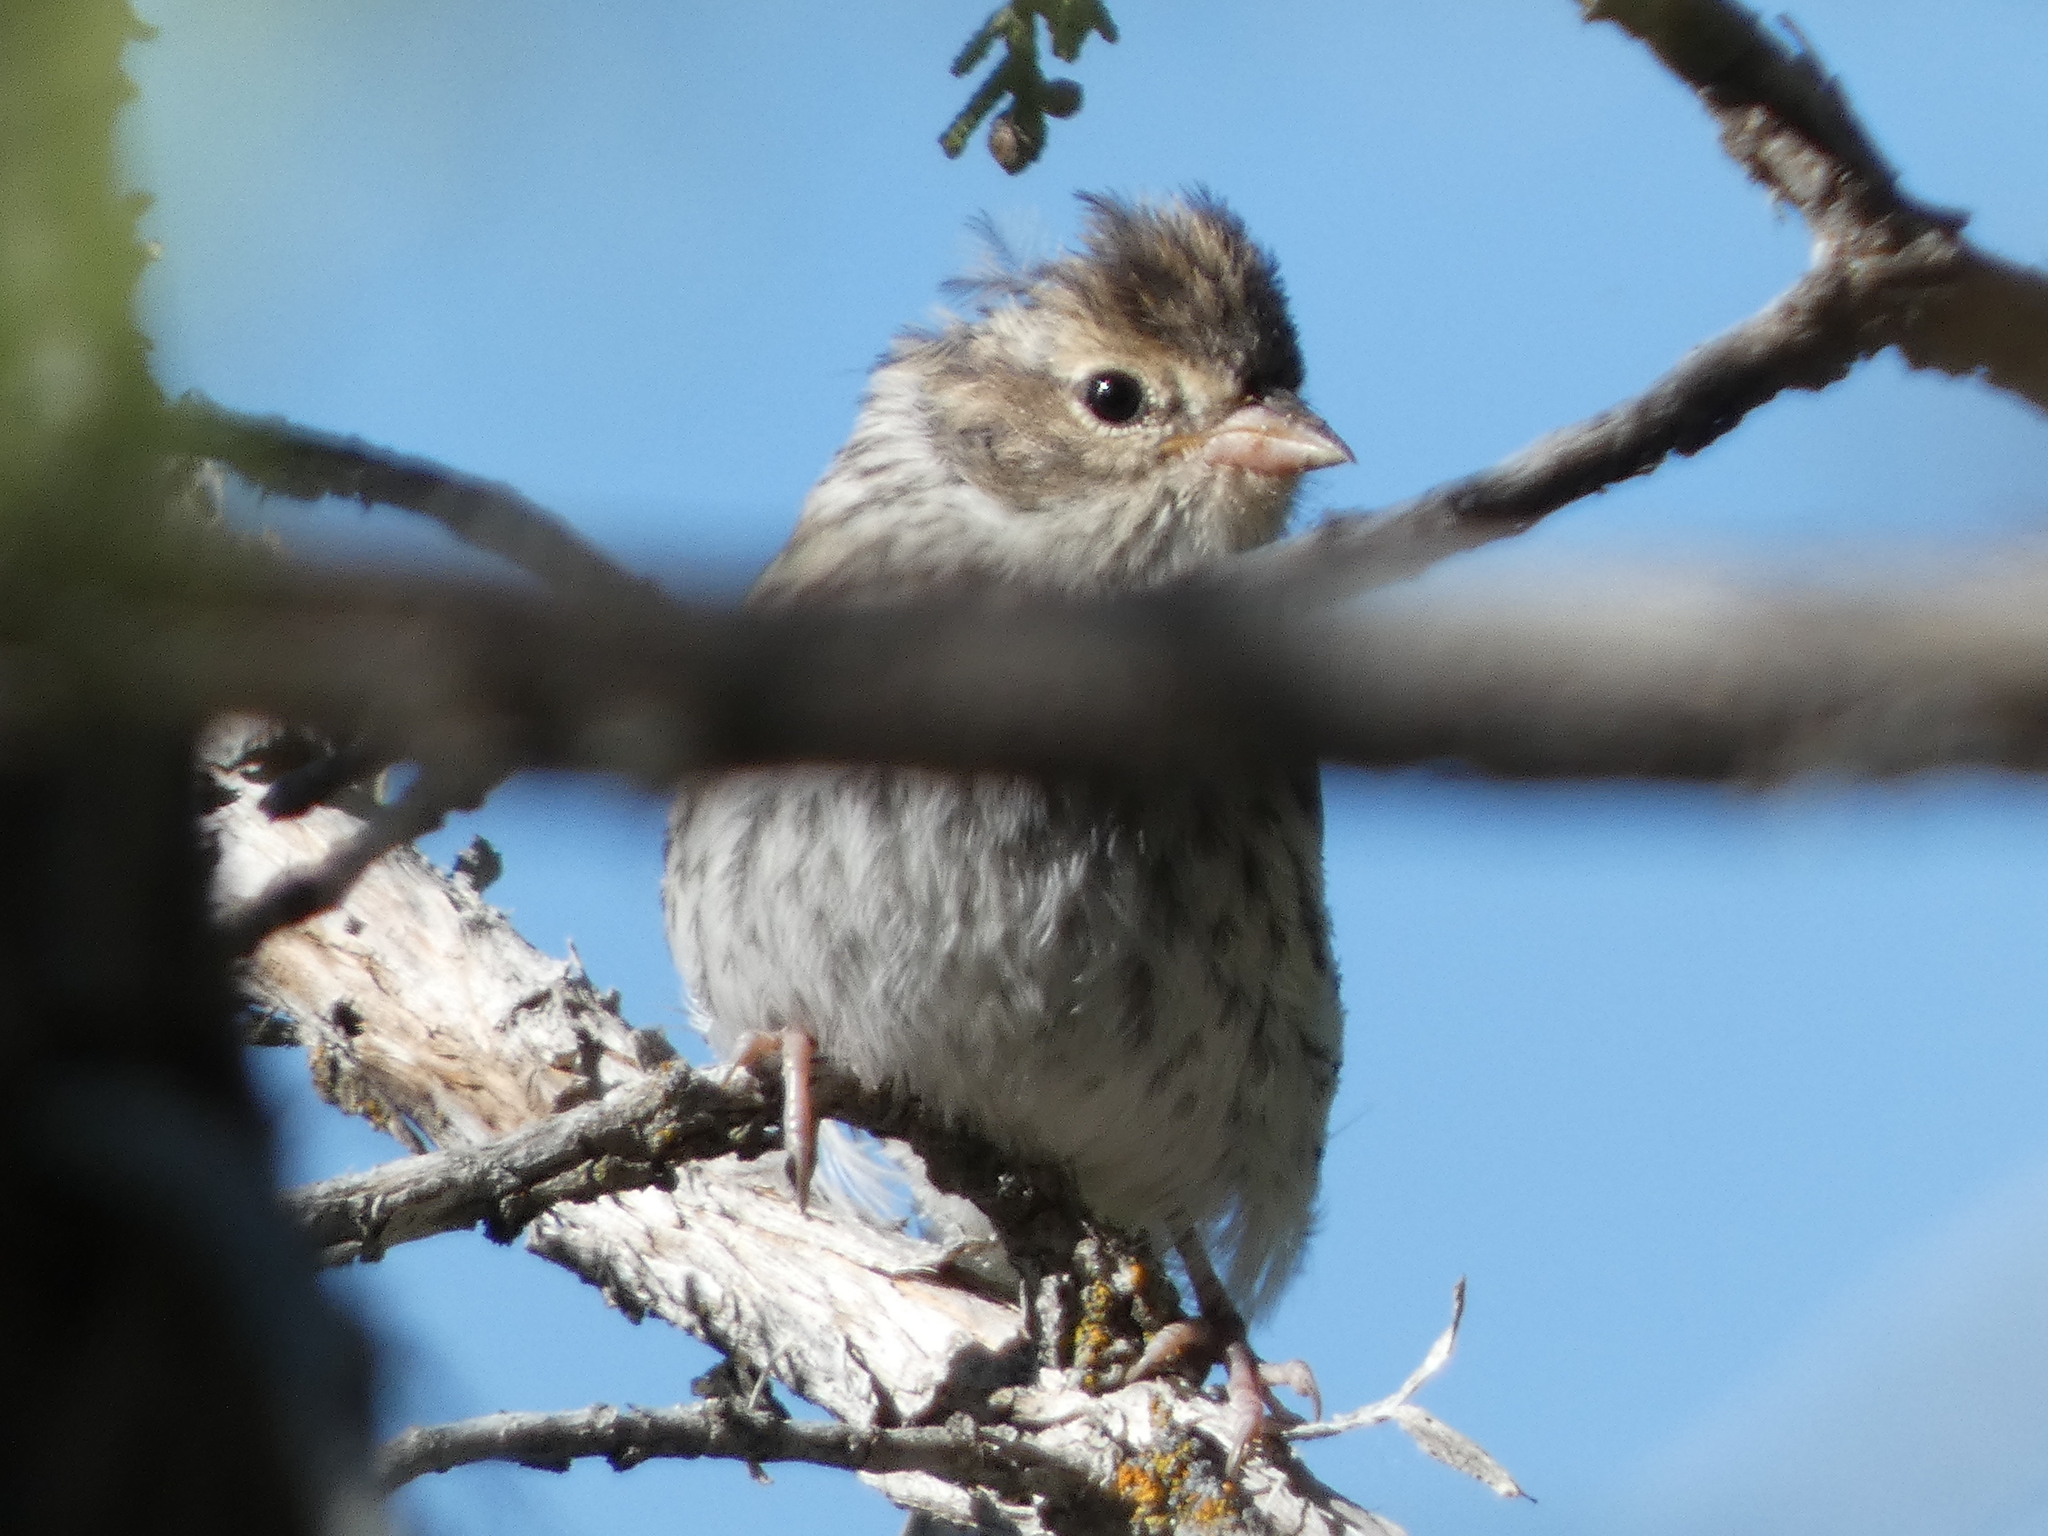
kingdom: Animalia
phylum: Chordata
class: Aves
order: Passeriformes
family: Passerellidae
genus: Spizella
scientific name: Spizella breweri
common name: Brewer's sparrow
